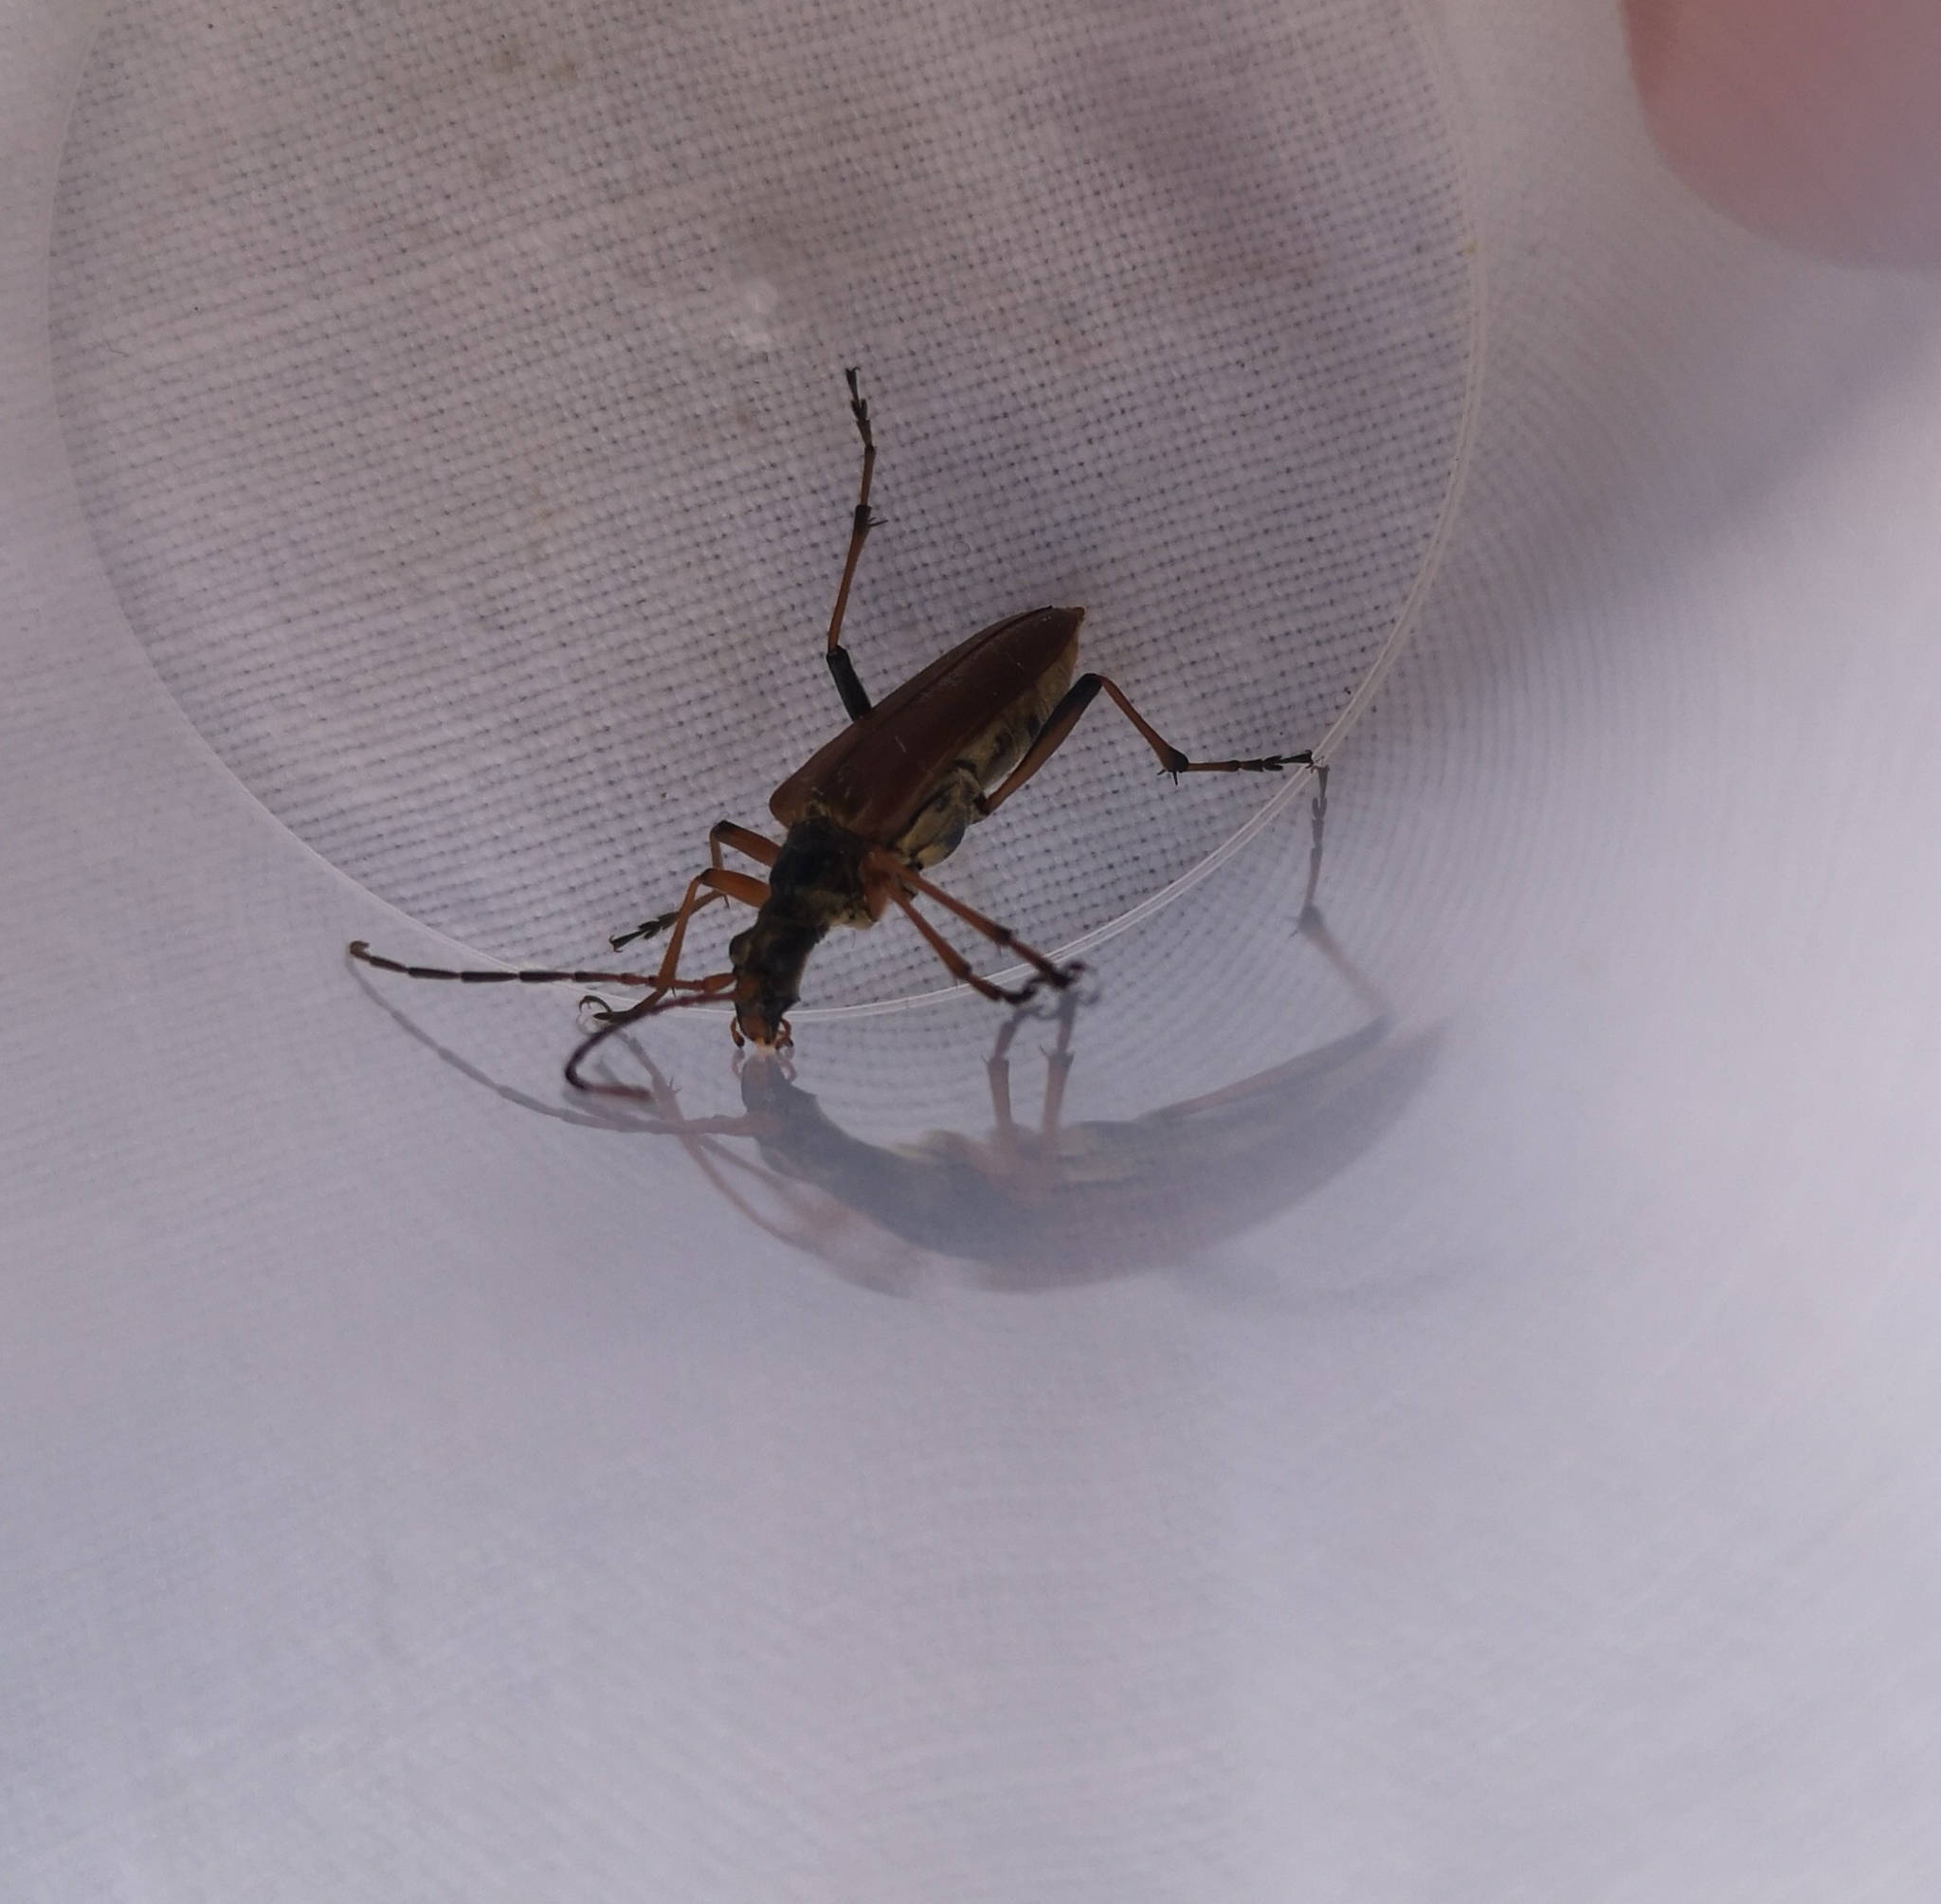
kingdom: Animalia
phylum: Arthropoda
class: Insecta
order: Coleoptera
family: Cerambycidae
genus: Stenocorus
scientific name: Stenocorus meridianus
